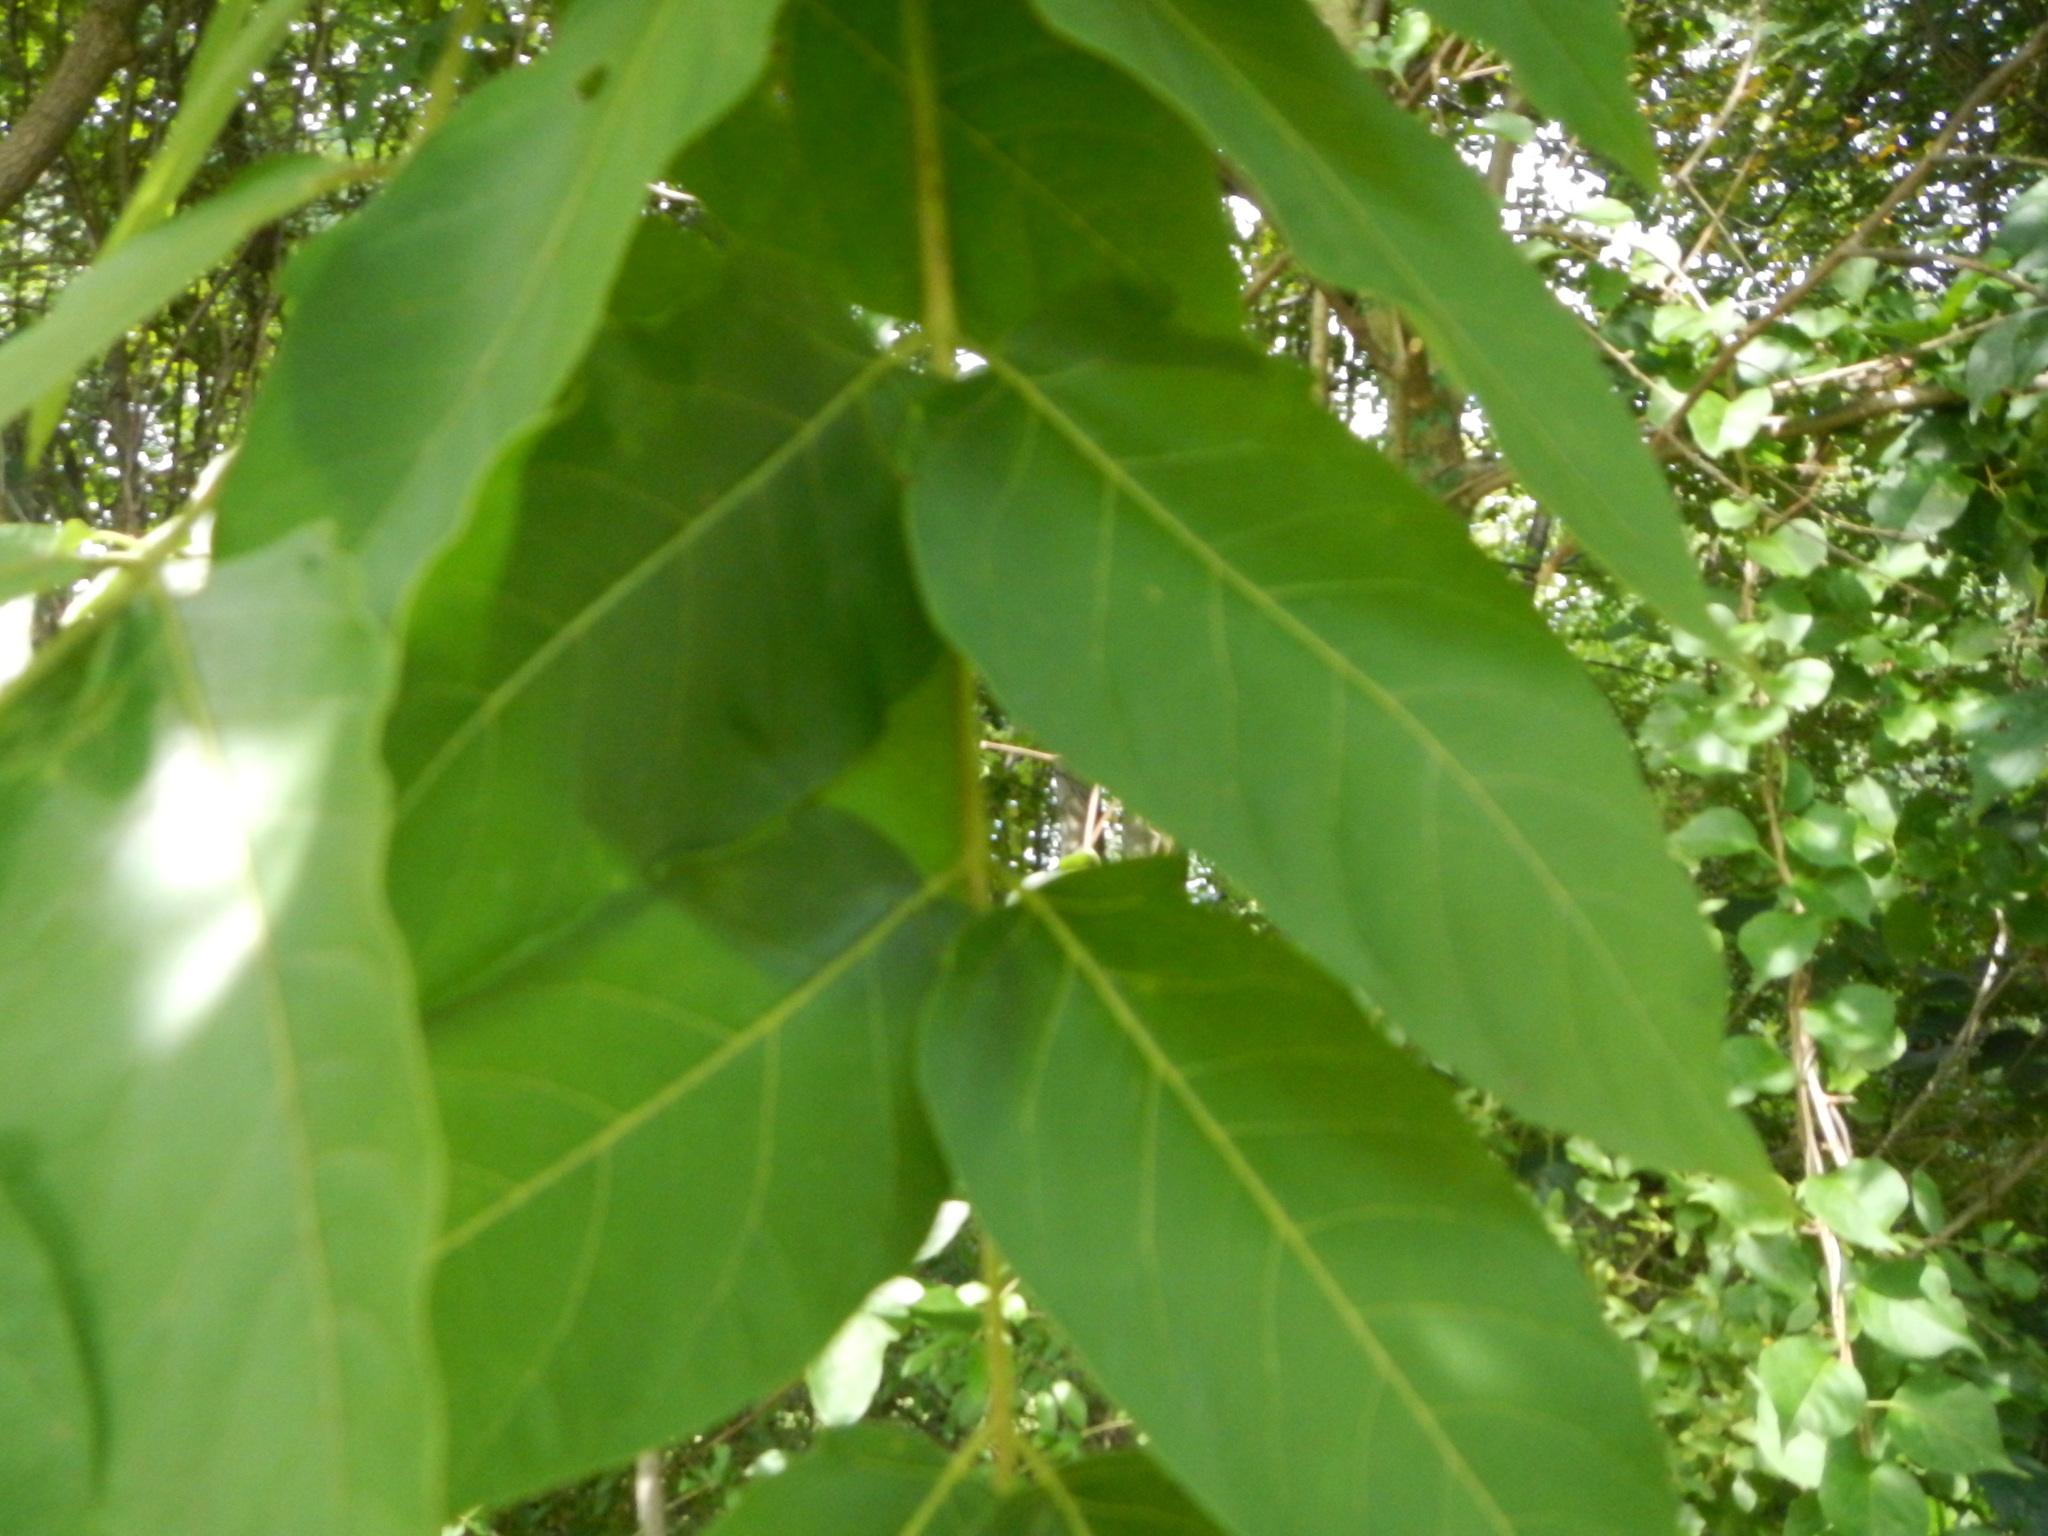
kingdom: Plantae
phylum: Tracheophyta
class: Magnoliopsida
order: Sapindales
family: Simaroubaceae
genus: Ailanthus
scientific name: Ailanthus altissima
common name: Tree-of-heaven
